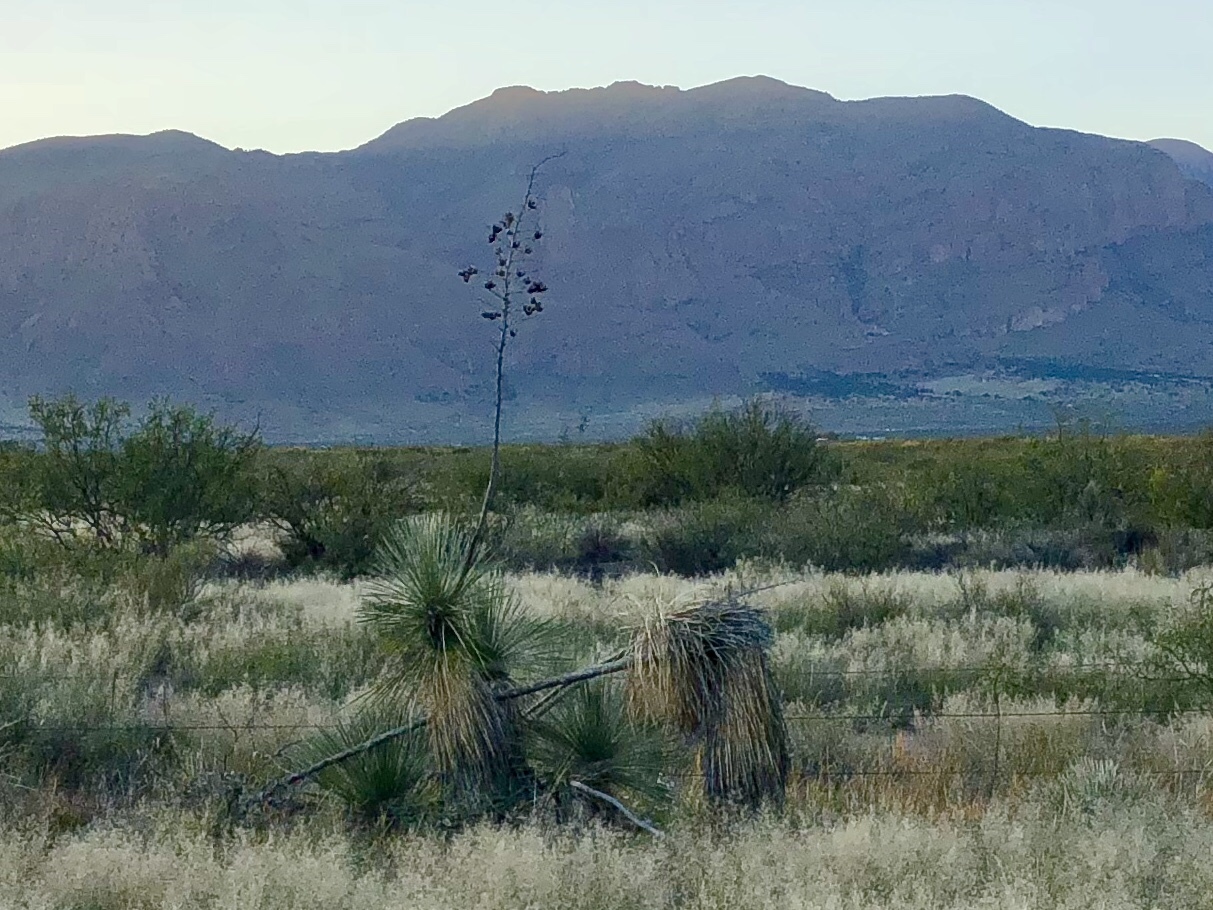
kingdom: Plantae
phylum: Tracheophyta
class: Liliopsida
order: Asparagales
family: Asparagaceae
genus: Yucca
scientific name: Yucca elata
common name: Palmella
